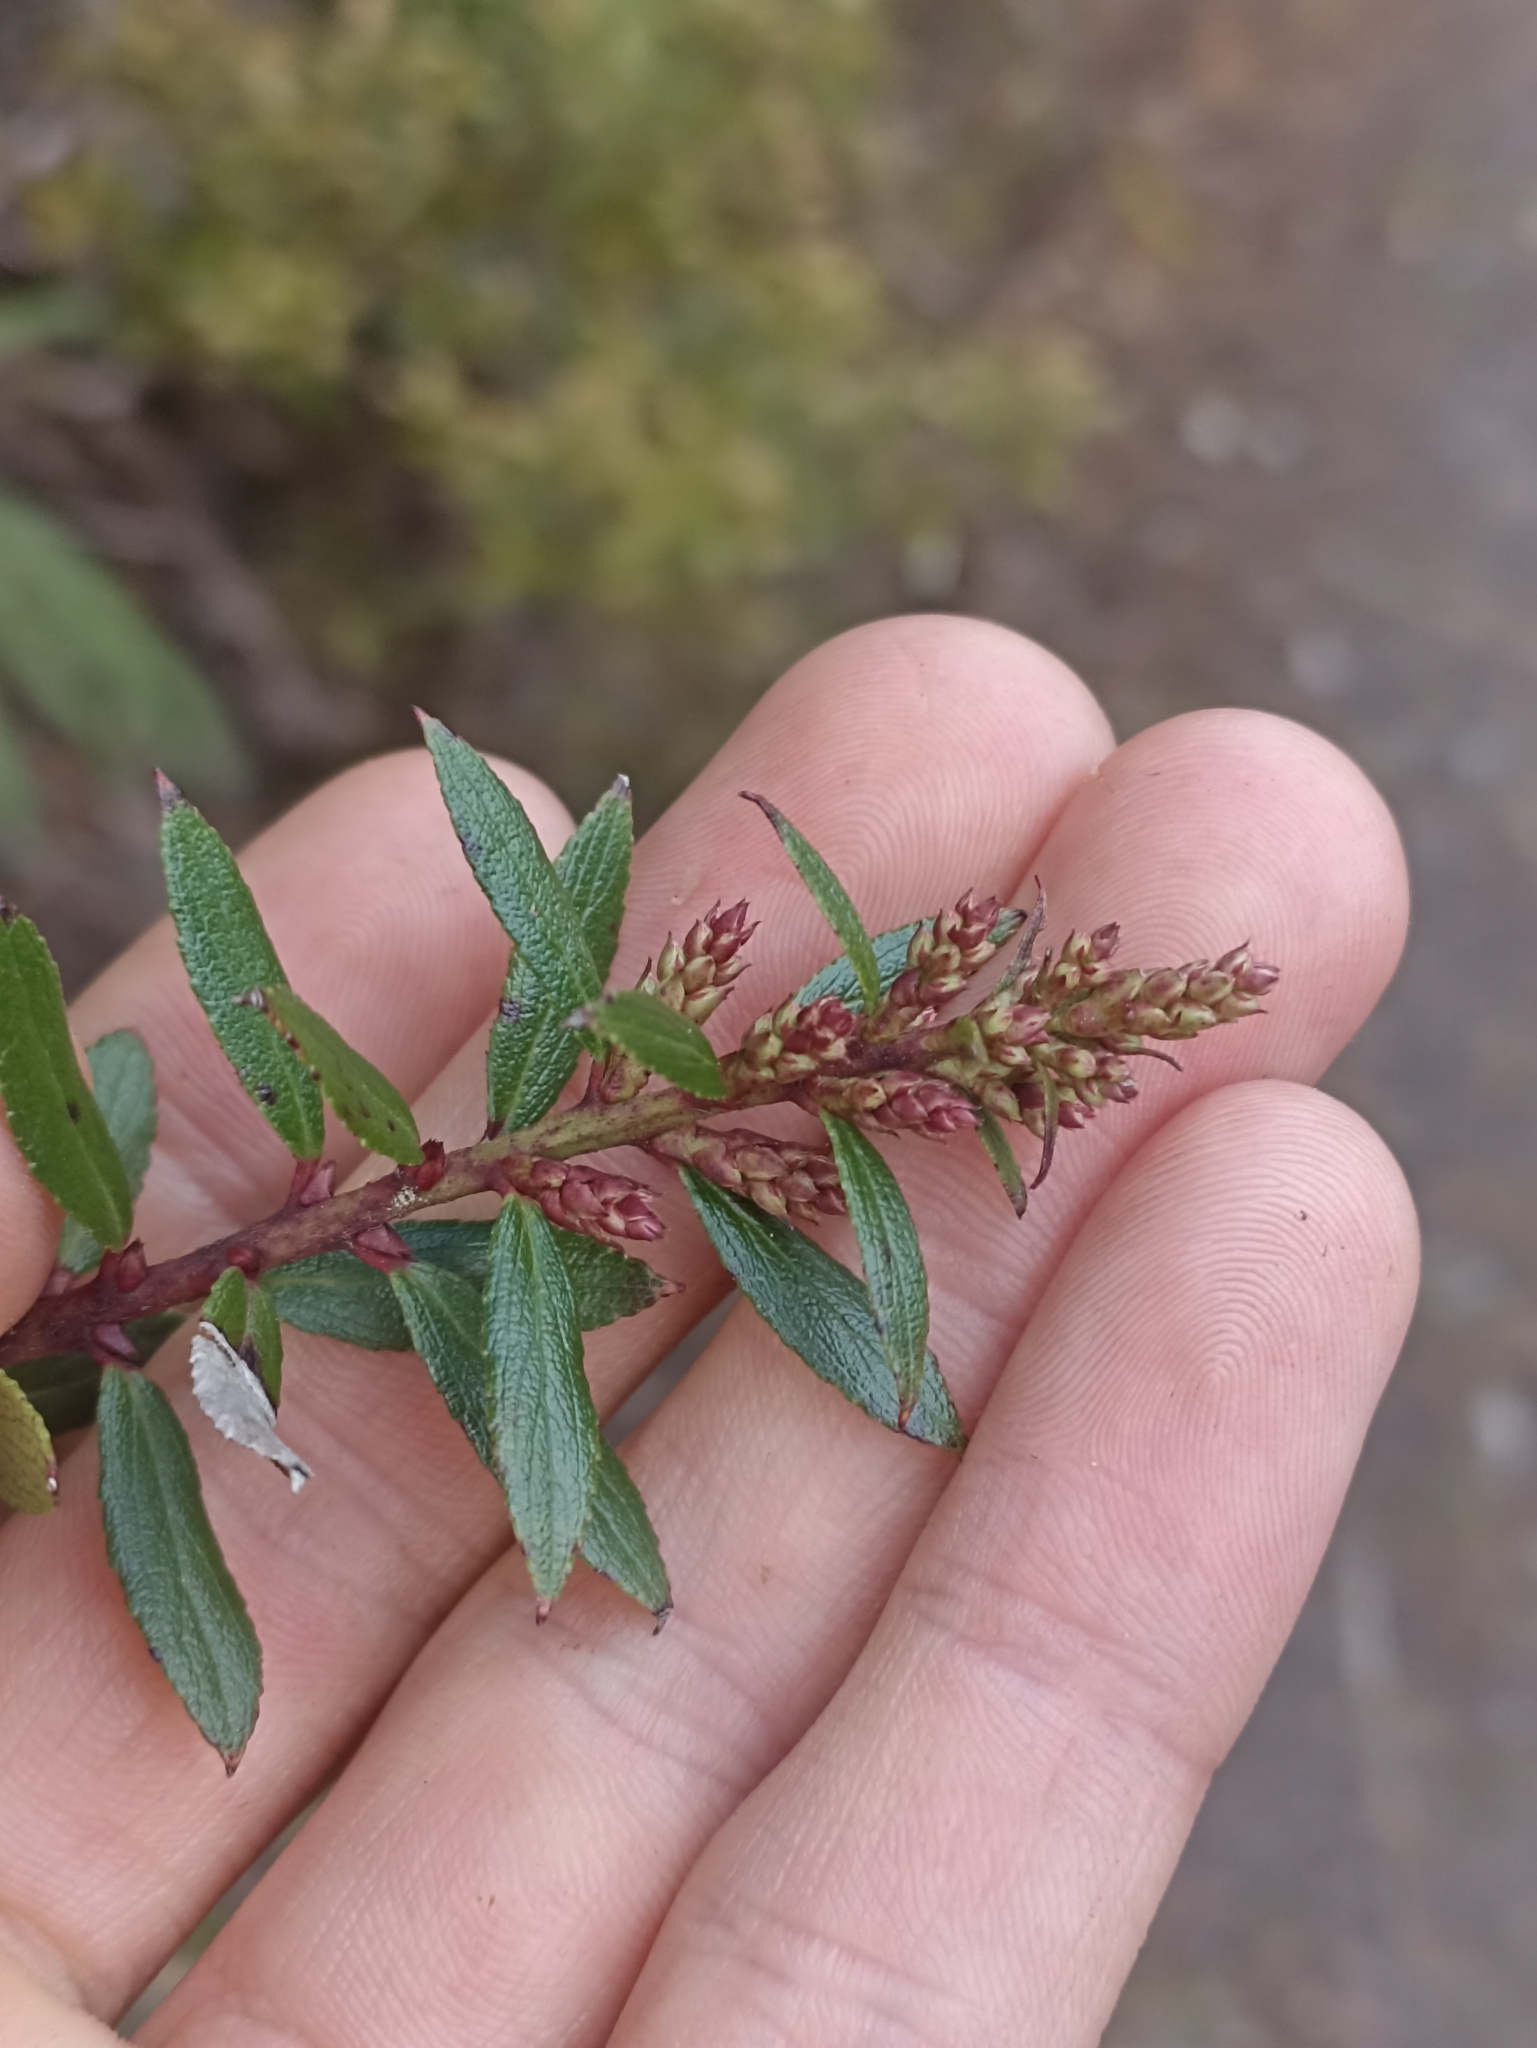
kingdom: Plantae
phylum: Tracheophyta
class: Magnoliopsida
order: Ericales
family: Ericaceae
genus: Gaultheria
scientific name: Gaultheria paniculata
